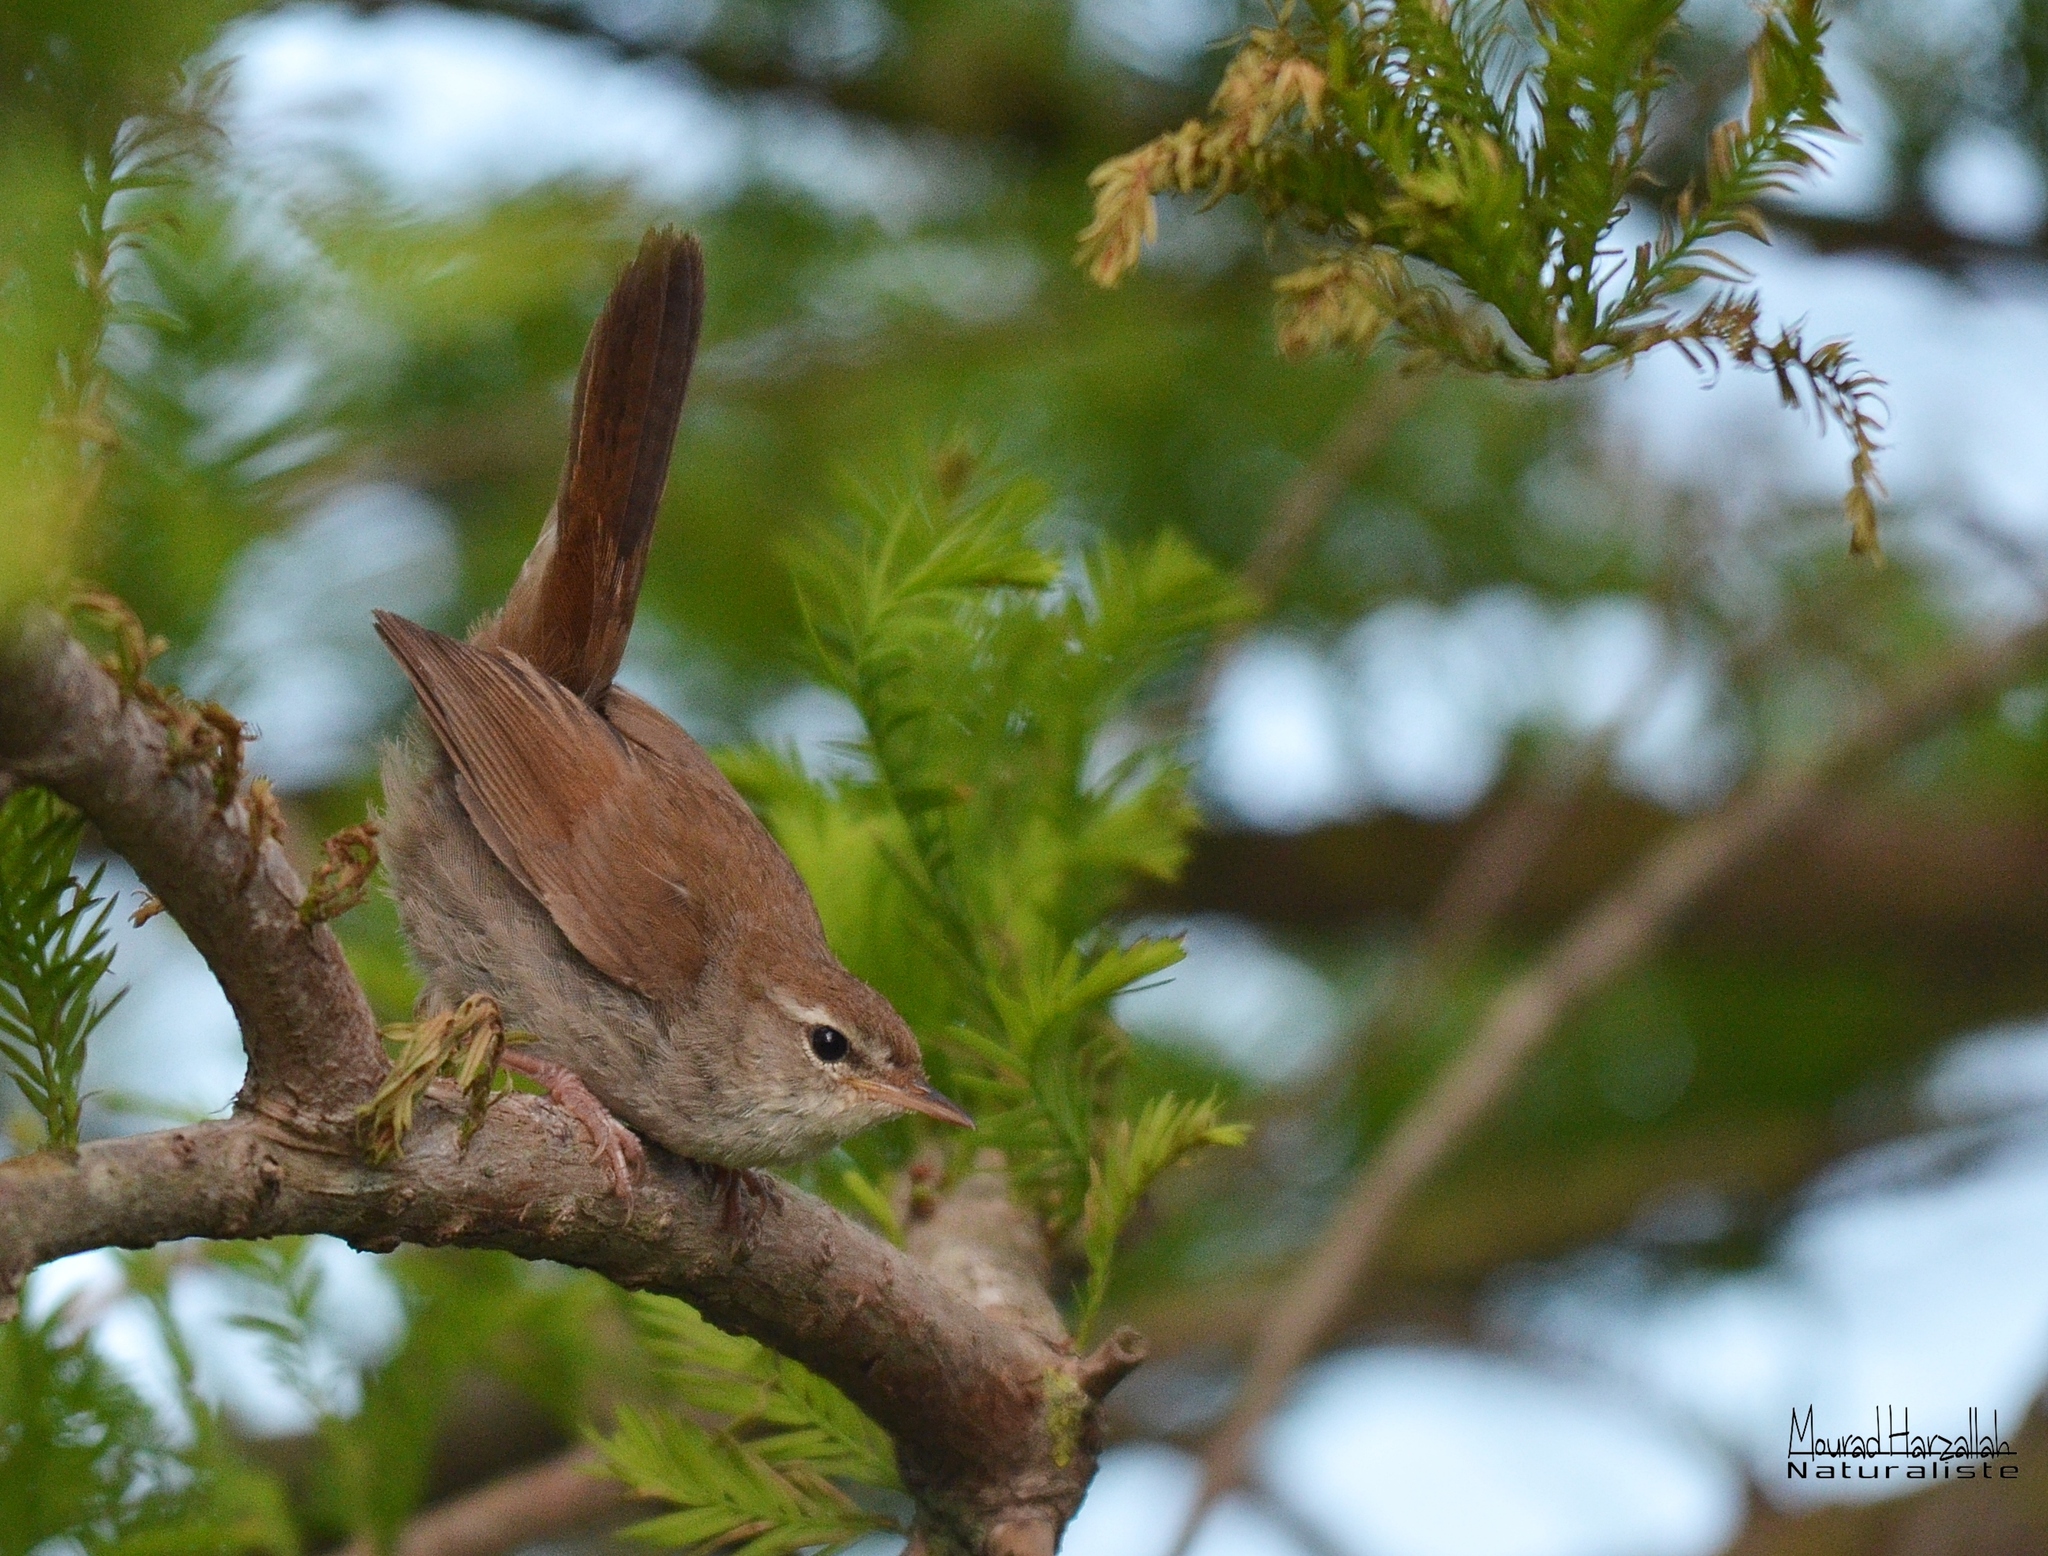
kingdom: Animalia
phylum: Chordata
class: Aves
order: Passeriformes
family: Cettiidae
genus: Cettia
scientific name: Cettia cetti
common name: Cetti's warbler
